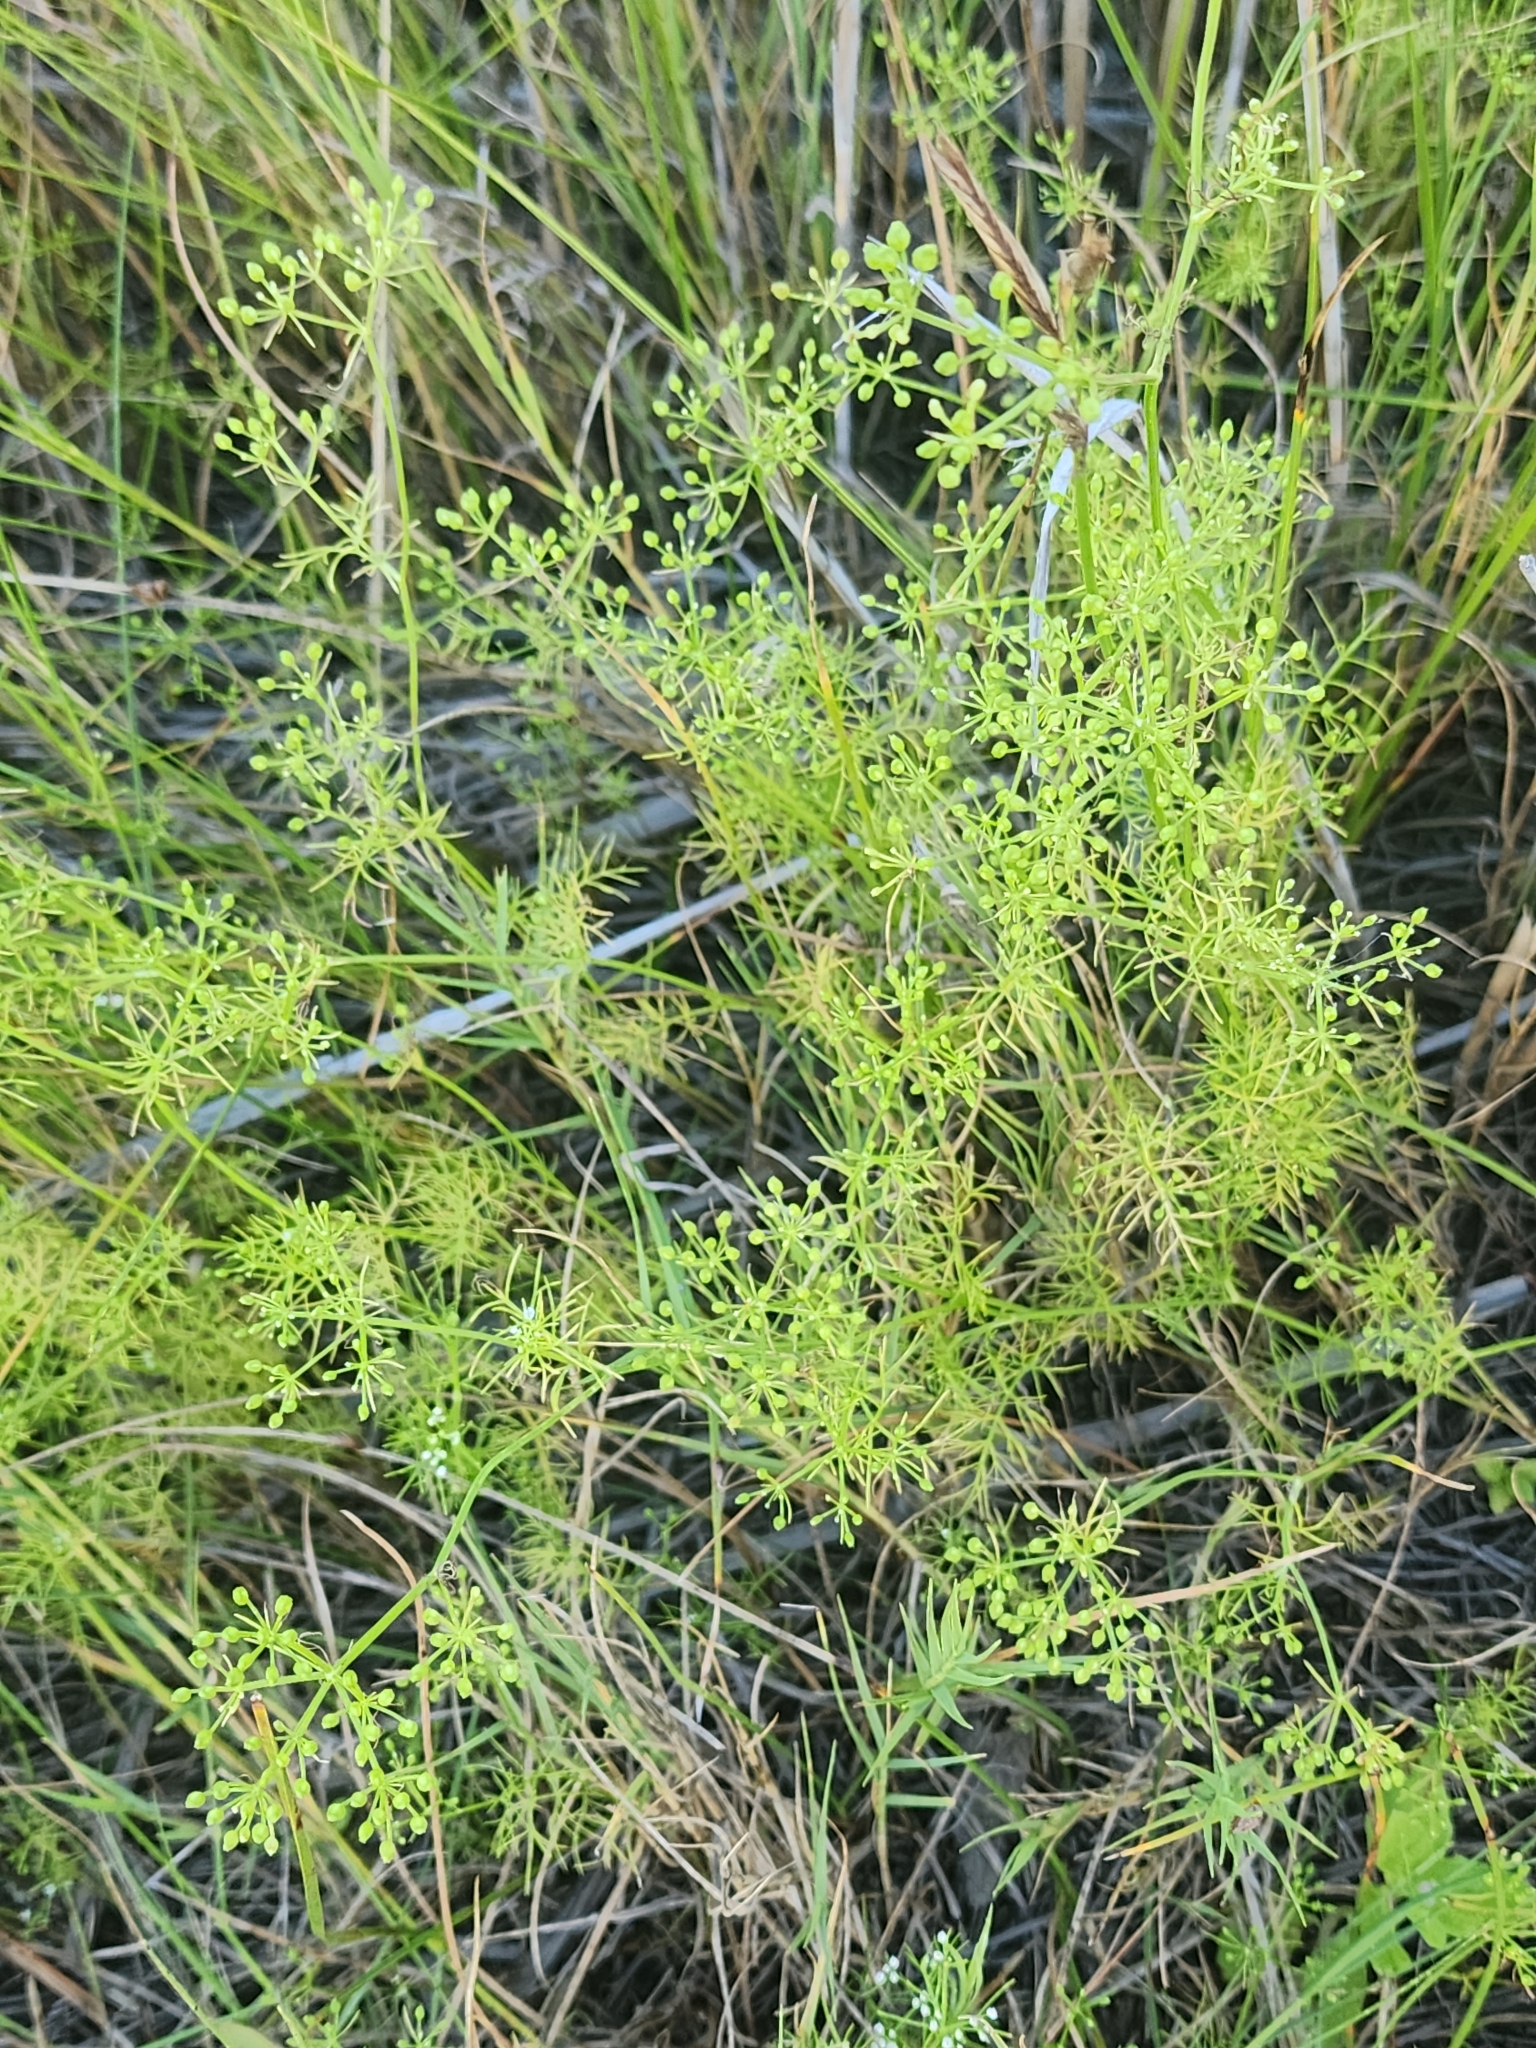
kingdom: Plantae
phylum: Tracheophyta
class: Magnoliopsida
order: Apiales
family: Apiaceae
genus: Ptilimnium
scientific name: Ptilimnium capillaceum
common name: Herbwilliam
